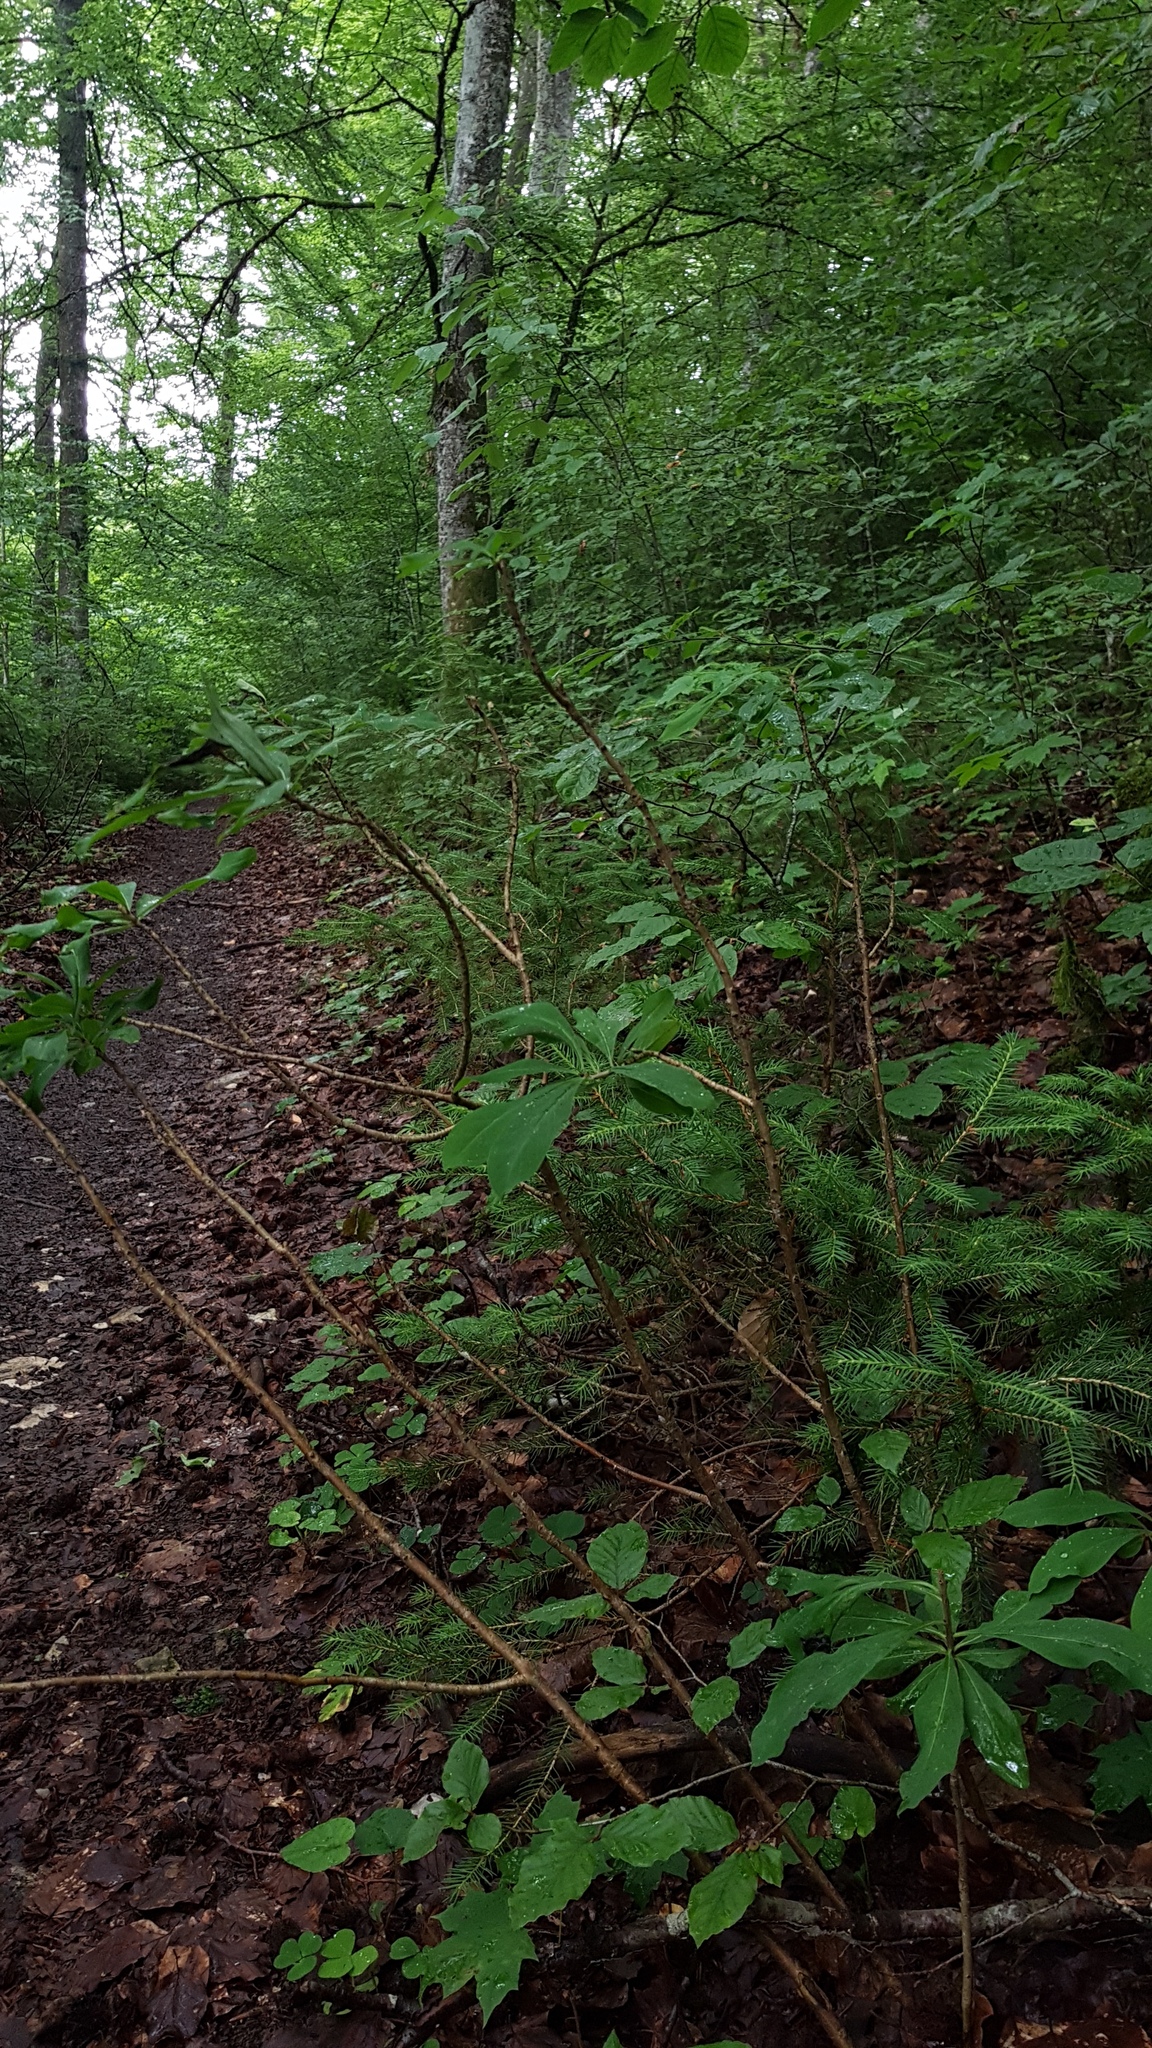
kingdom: Plantae
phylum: Tracheophyta
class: Magnoliopsida
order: Malvales
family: Thymelaeaceae
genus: Daphne
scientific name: Daphne mezereum
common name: Mezereon
